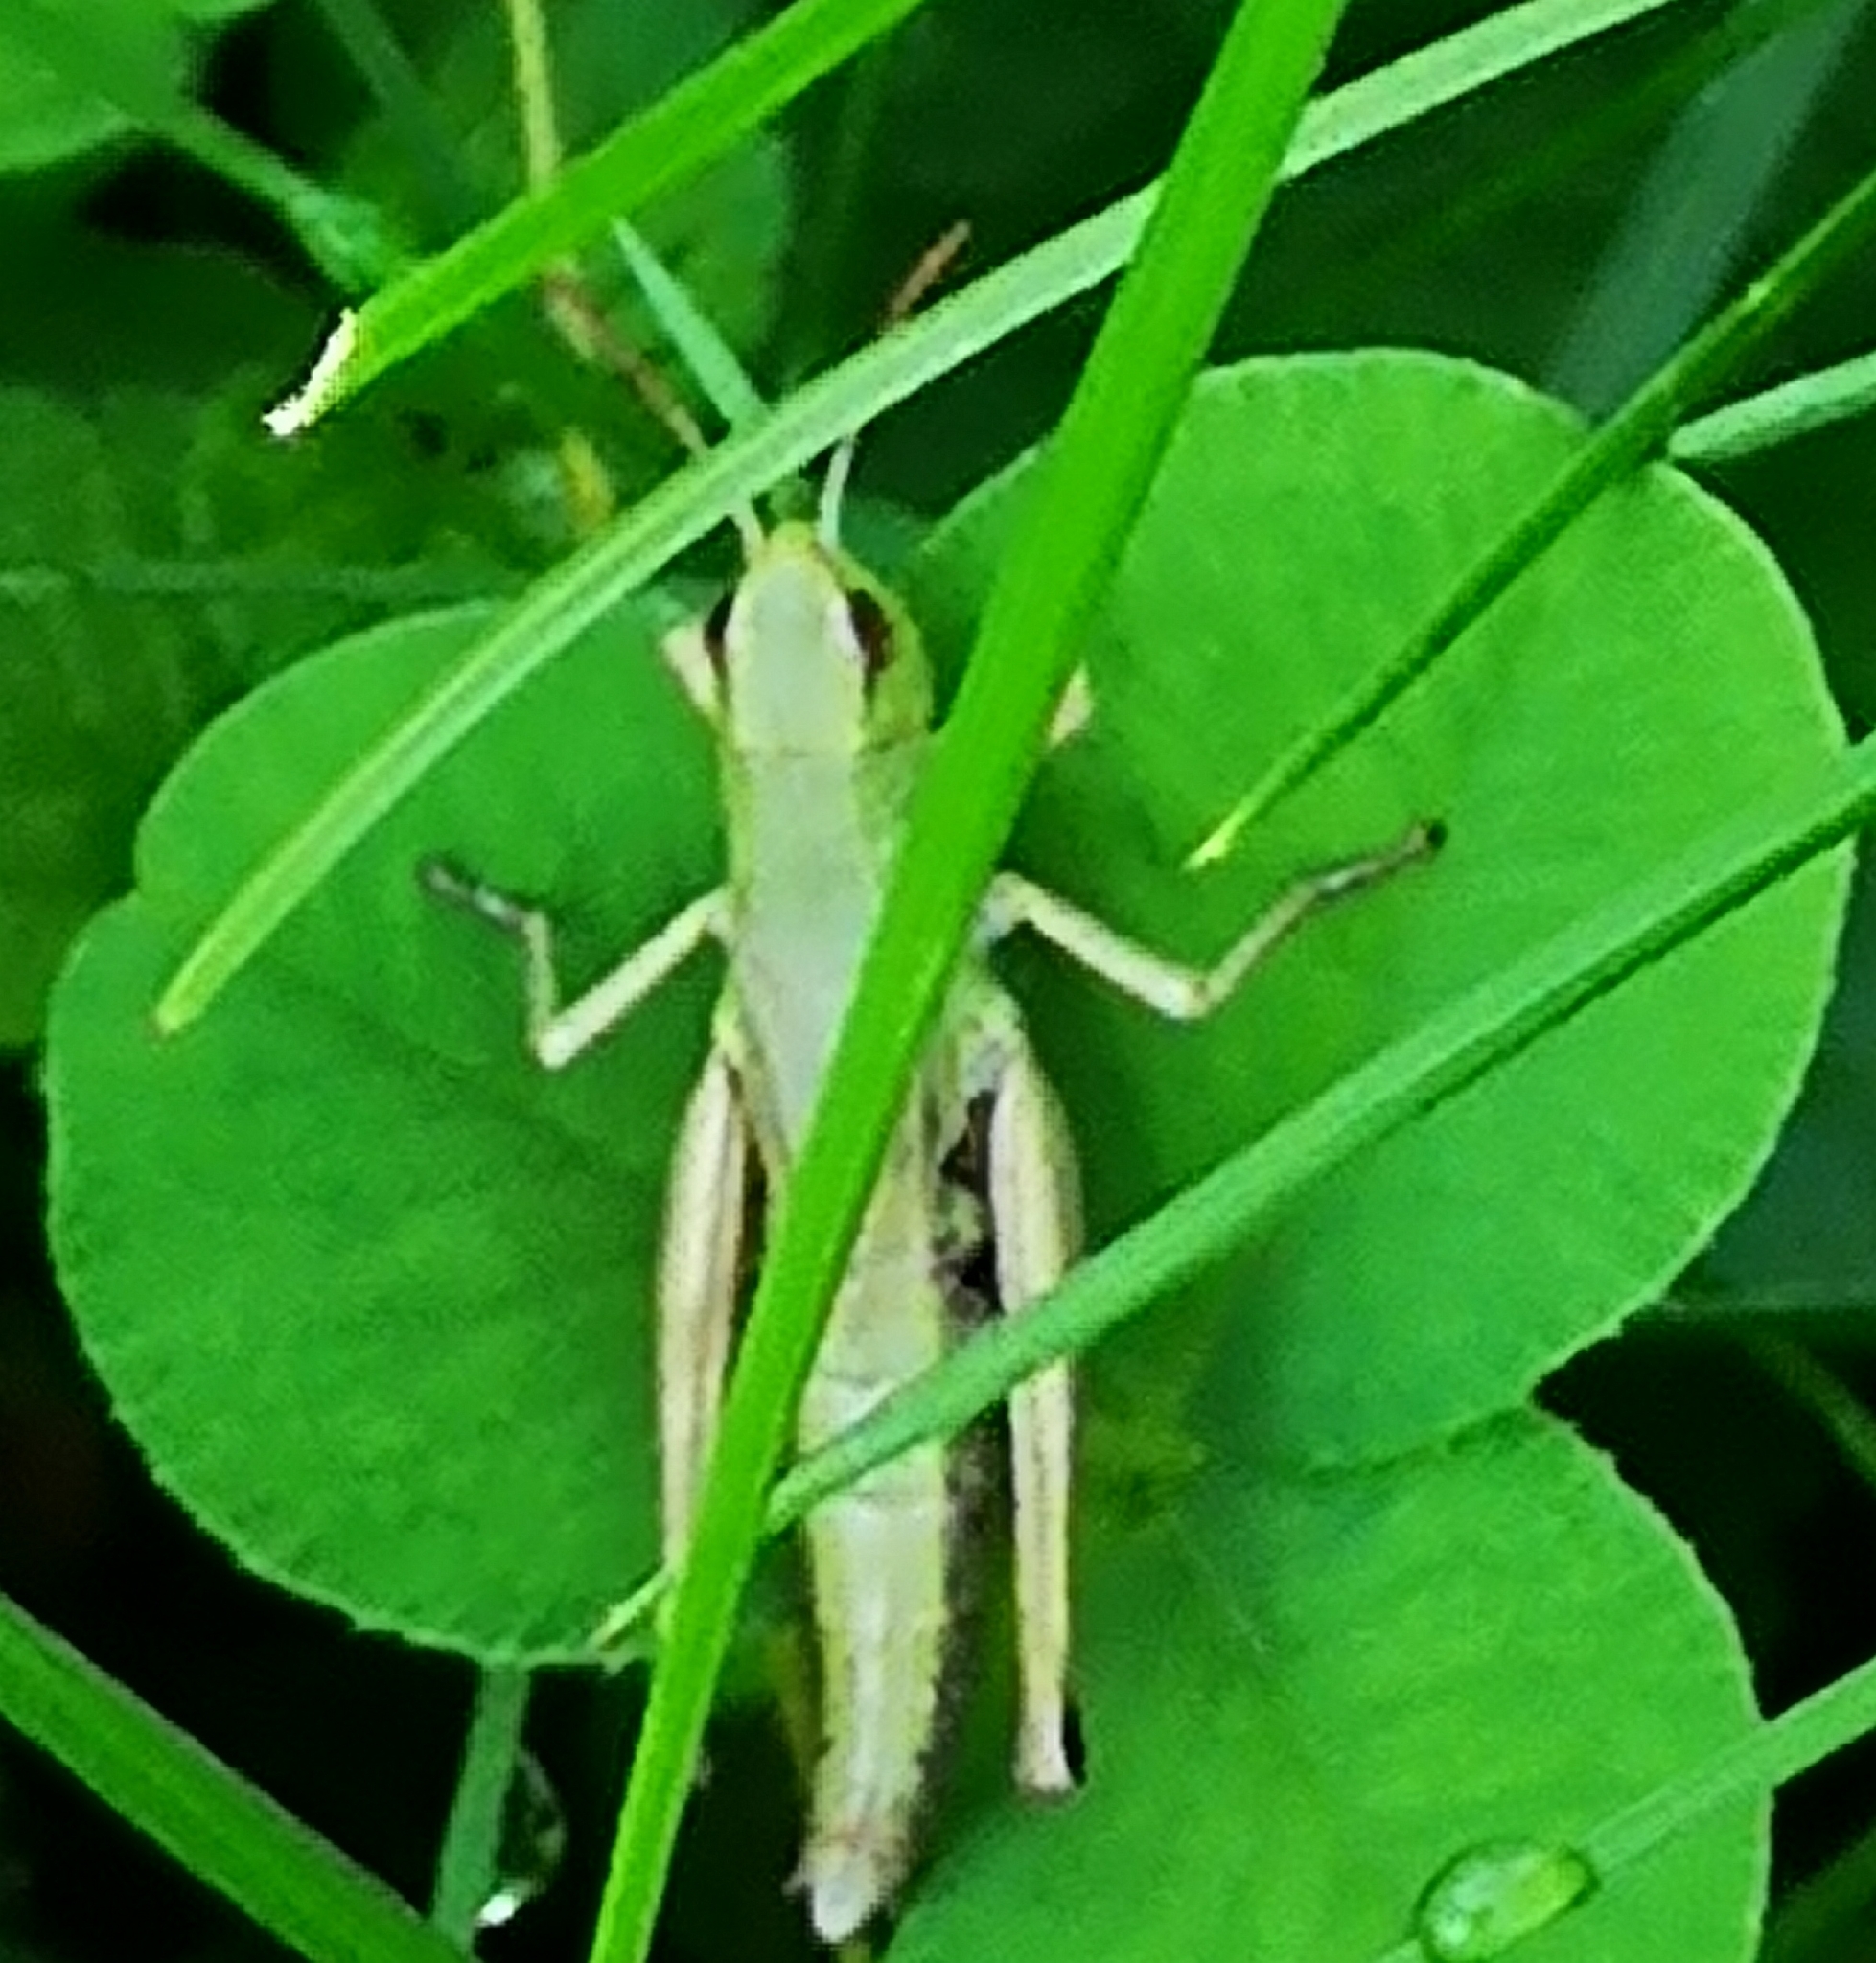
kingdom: Animalia
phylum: Arthropoda
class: Insecta
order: Orthoptera
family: Acrididae
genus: Pseudochorthippus
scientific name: Pseudochorthippus parallelus
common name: Meadow grasshopper
